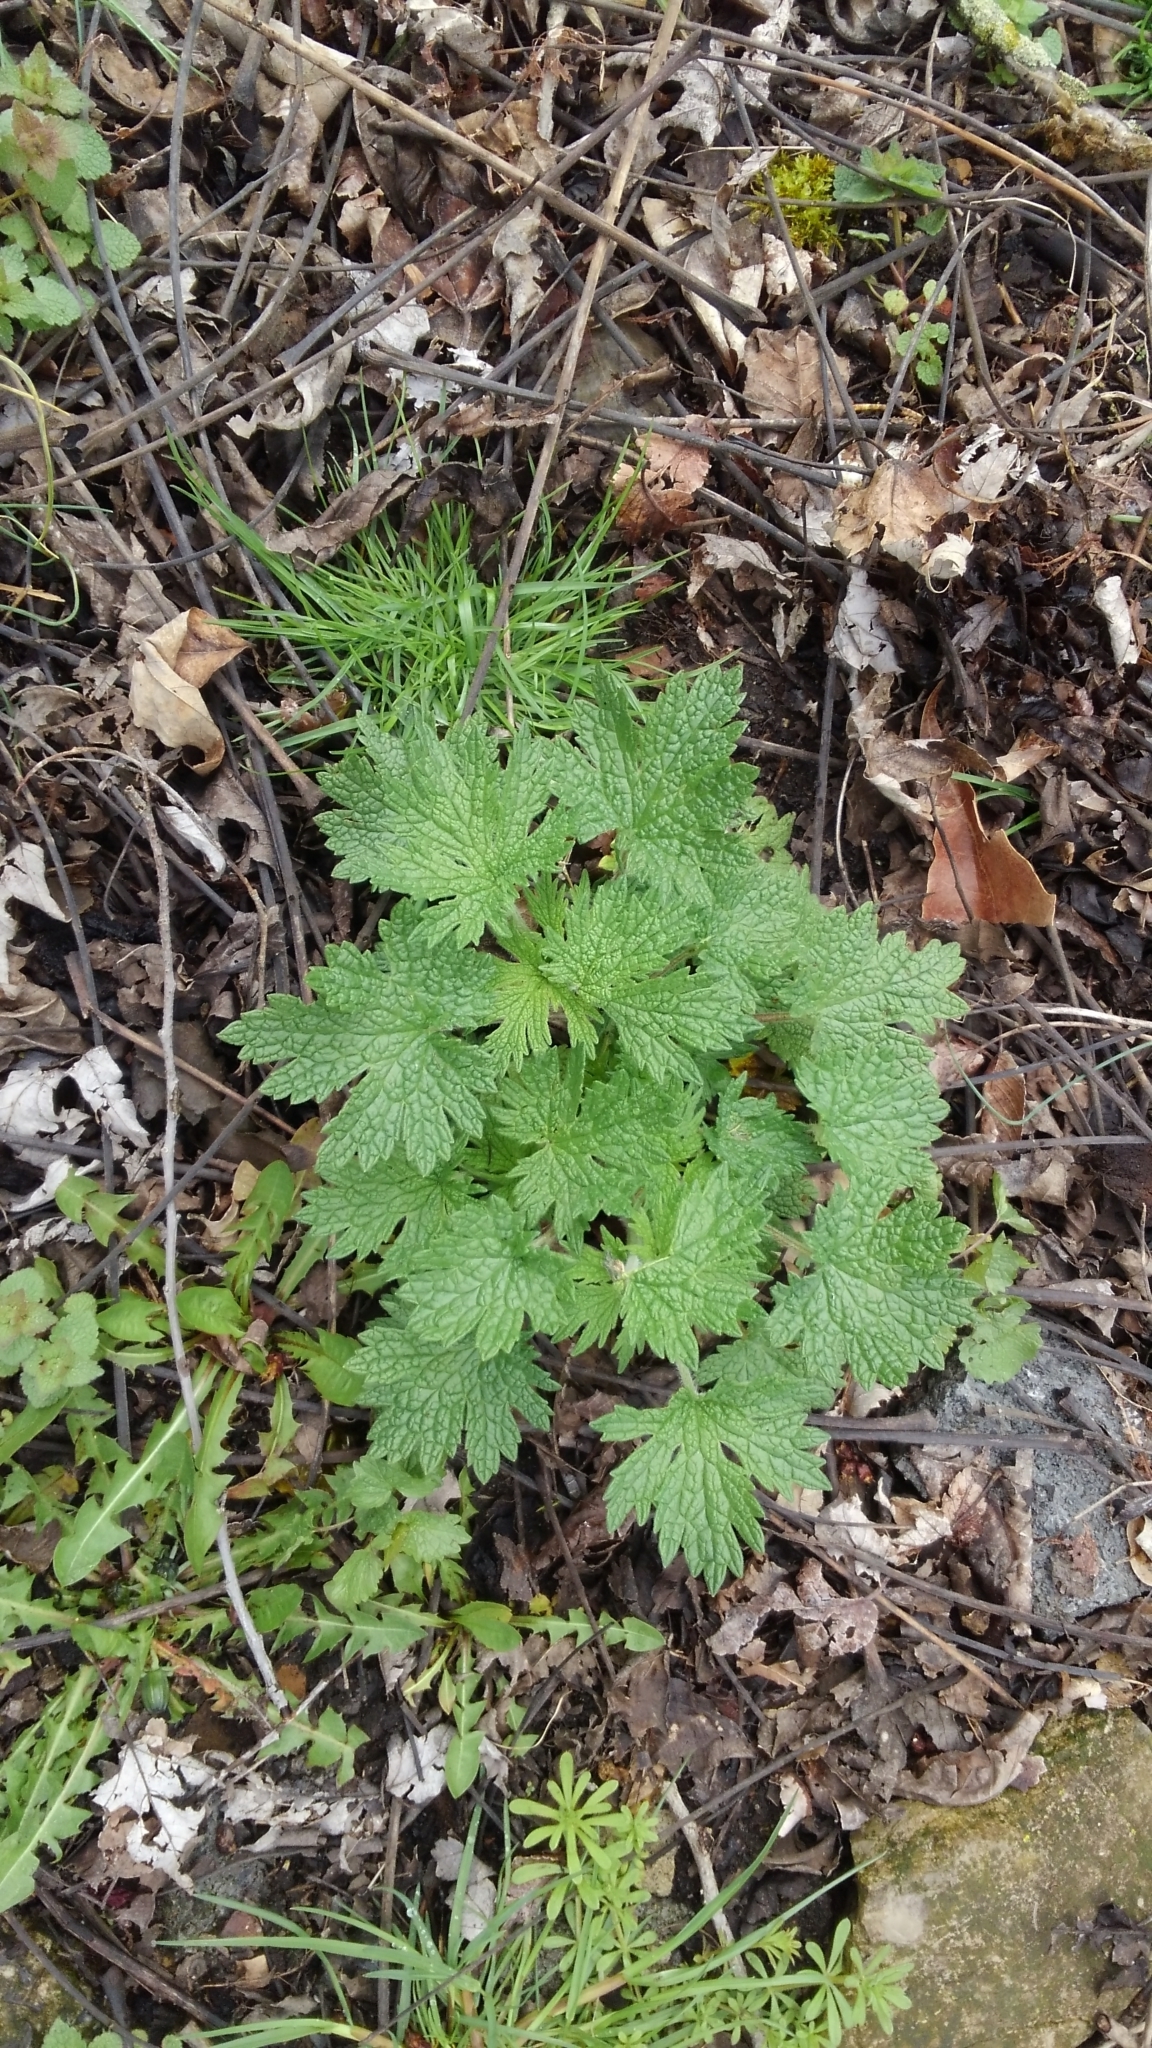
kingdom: Plantae
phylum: Tracheophyta
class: Magnoliopsida
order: Lamiales
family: Lamiaceae
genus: Leonurus
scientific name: Leonurus cardiaca
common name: Motherwort
